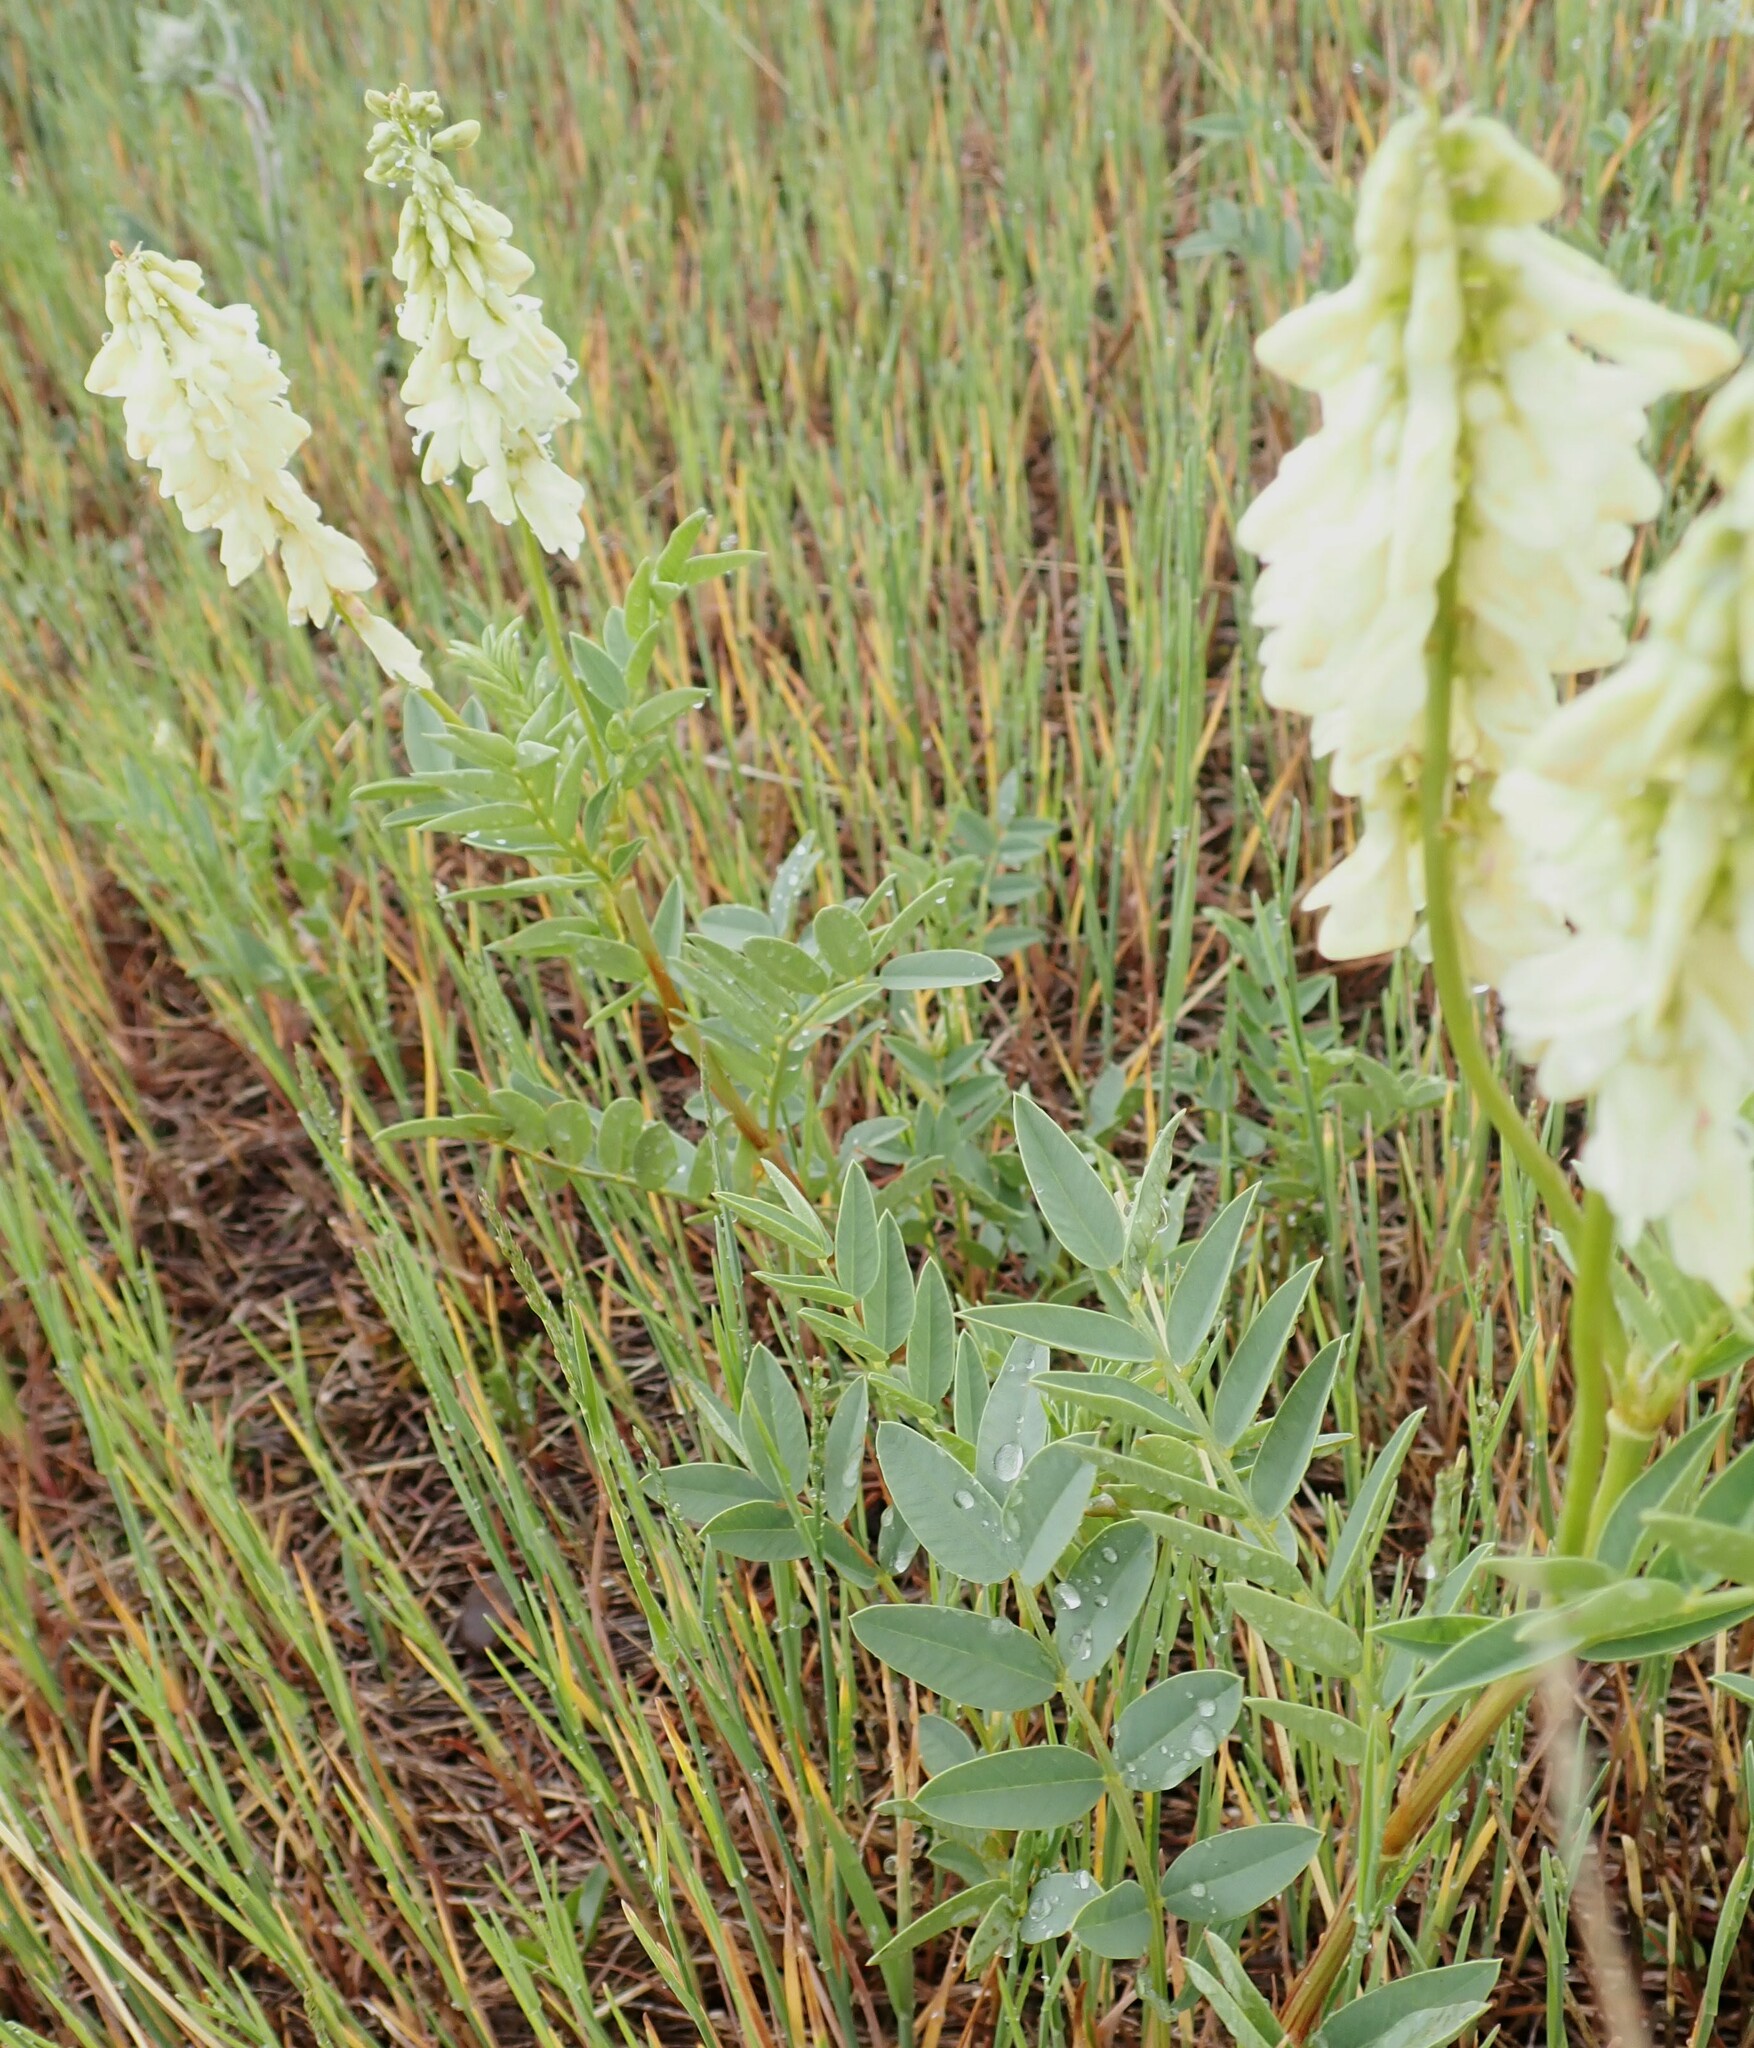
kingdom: Plantae
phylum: Tracheophyta
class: Magnoliopsida
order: Fabales
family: Fabaceae
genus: Hedysarum
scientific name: Hedysarum sulphurescens
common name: Sulphur hedysarum
